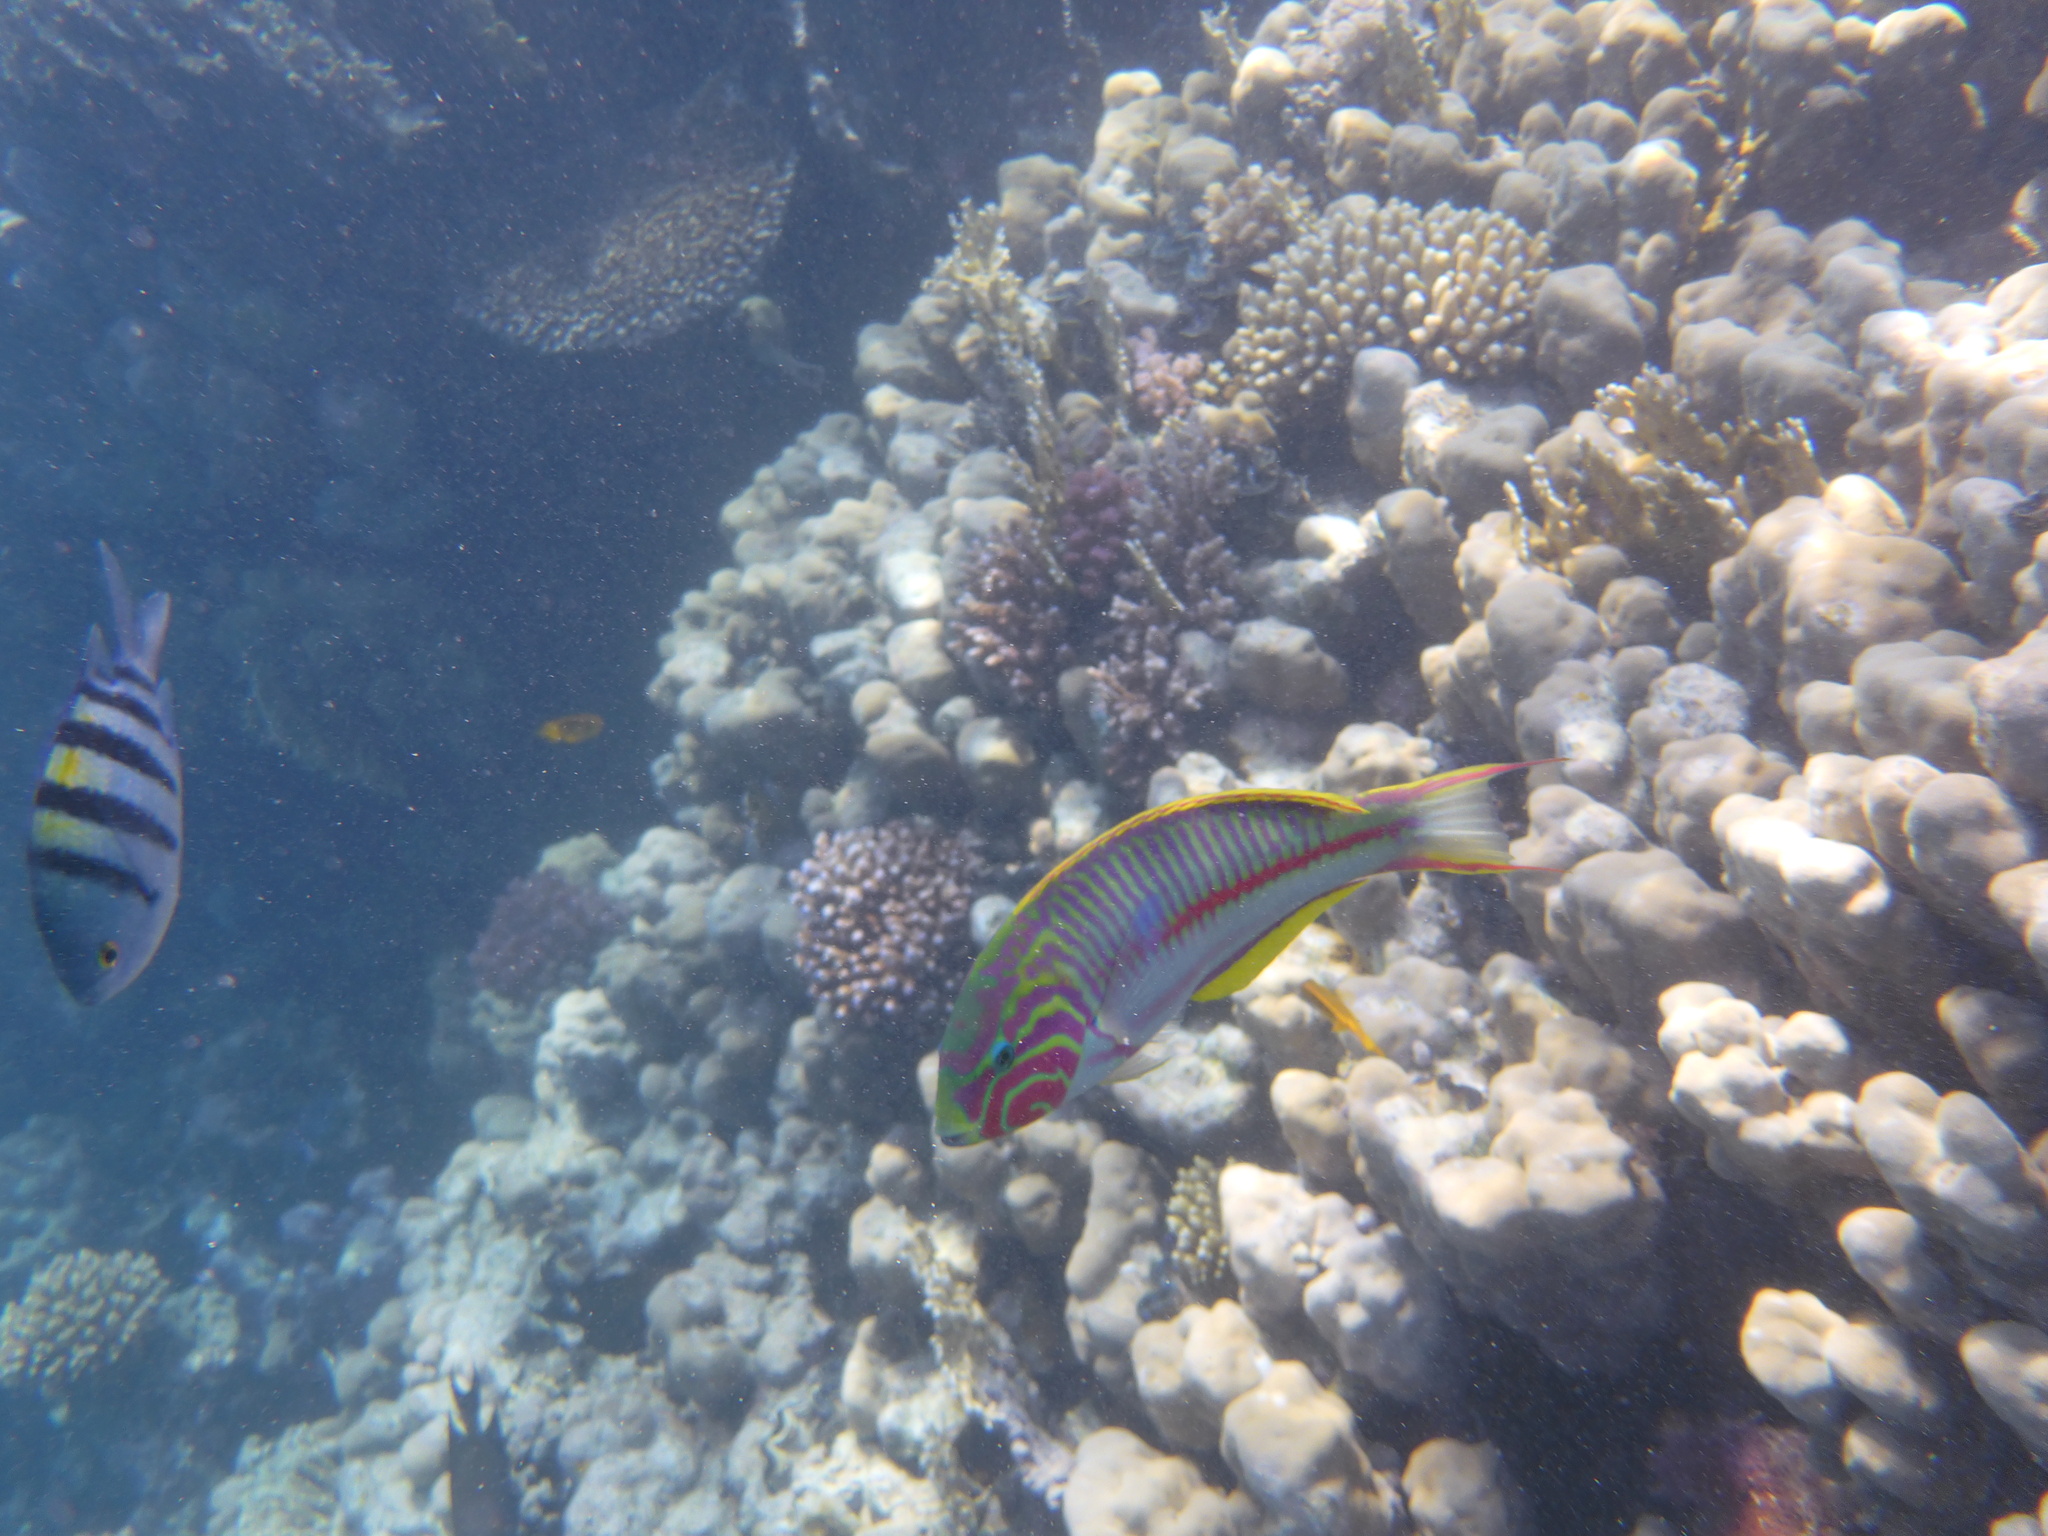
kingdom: Animalia
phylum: Chordata
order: Perciformes
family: Labridae
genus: Thalassoma
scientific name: Thalassoma rueppellii
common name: Klunzinger's wrasse
